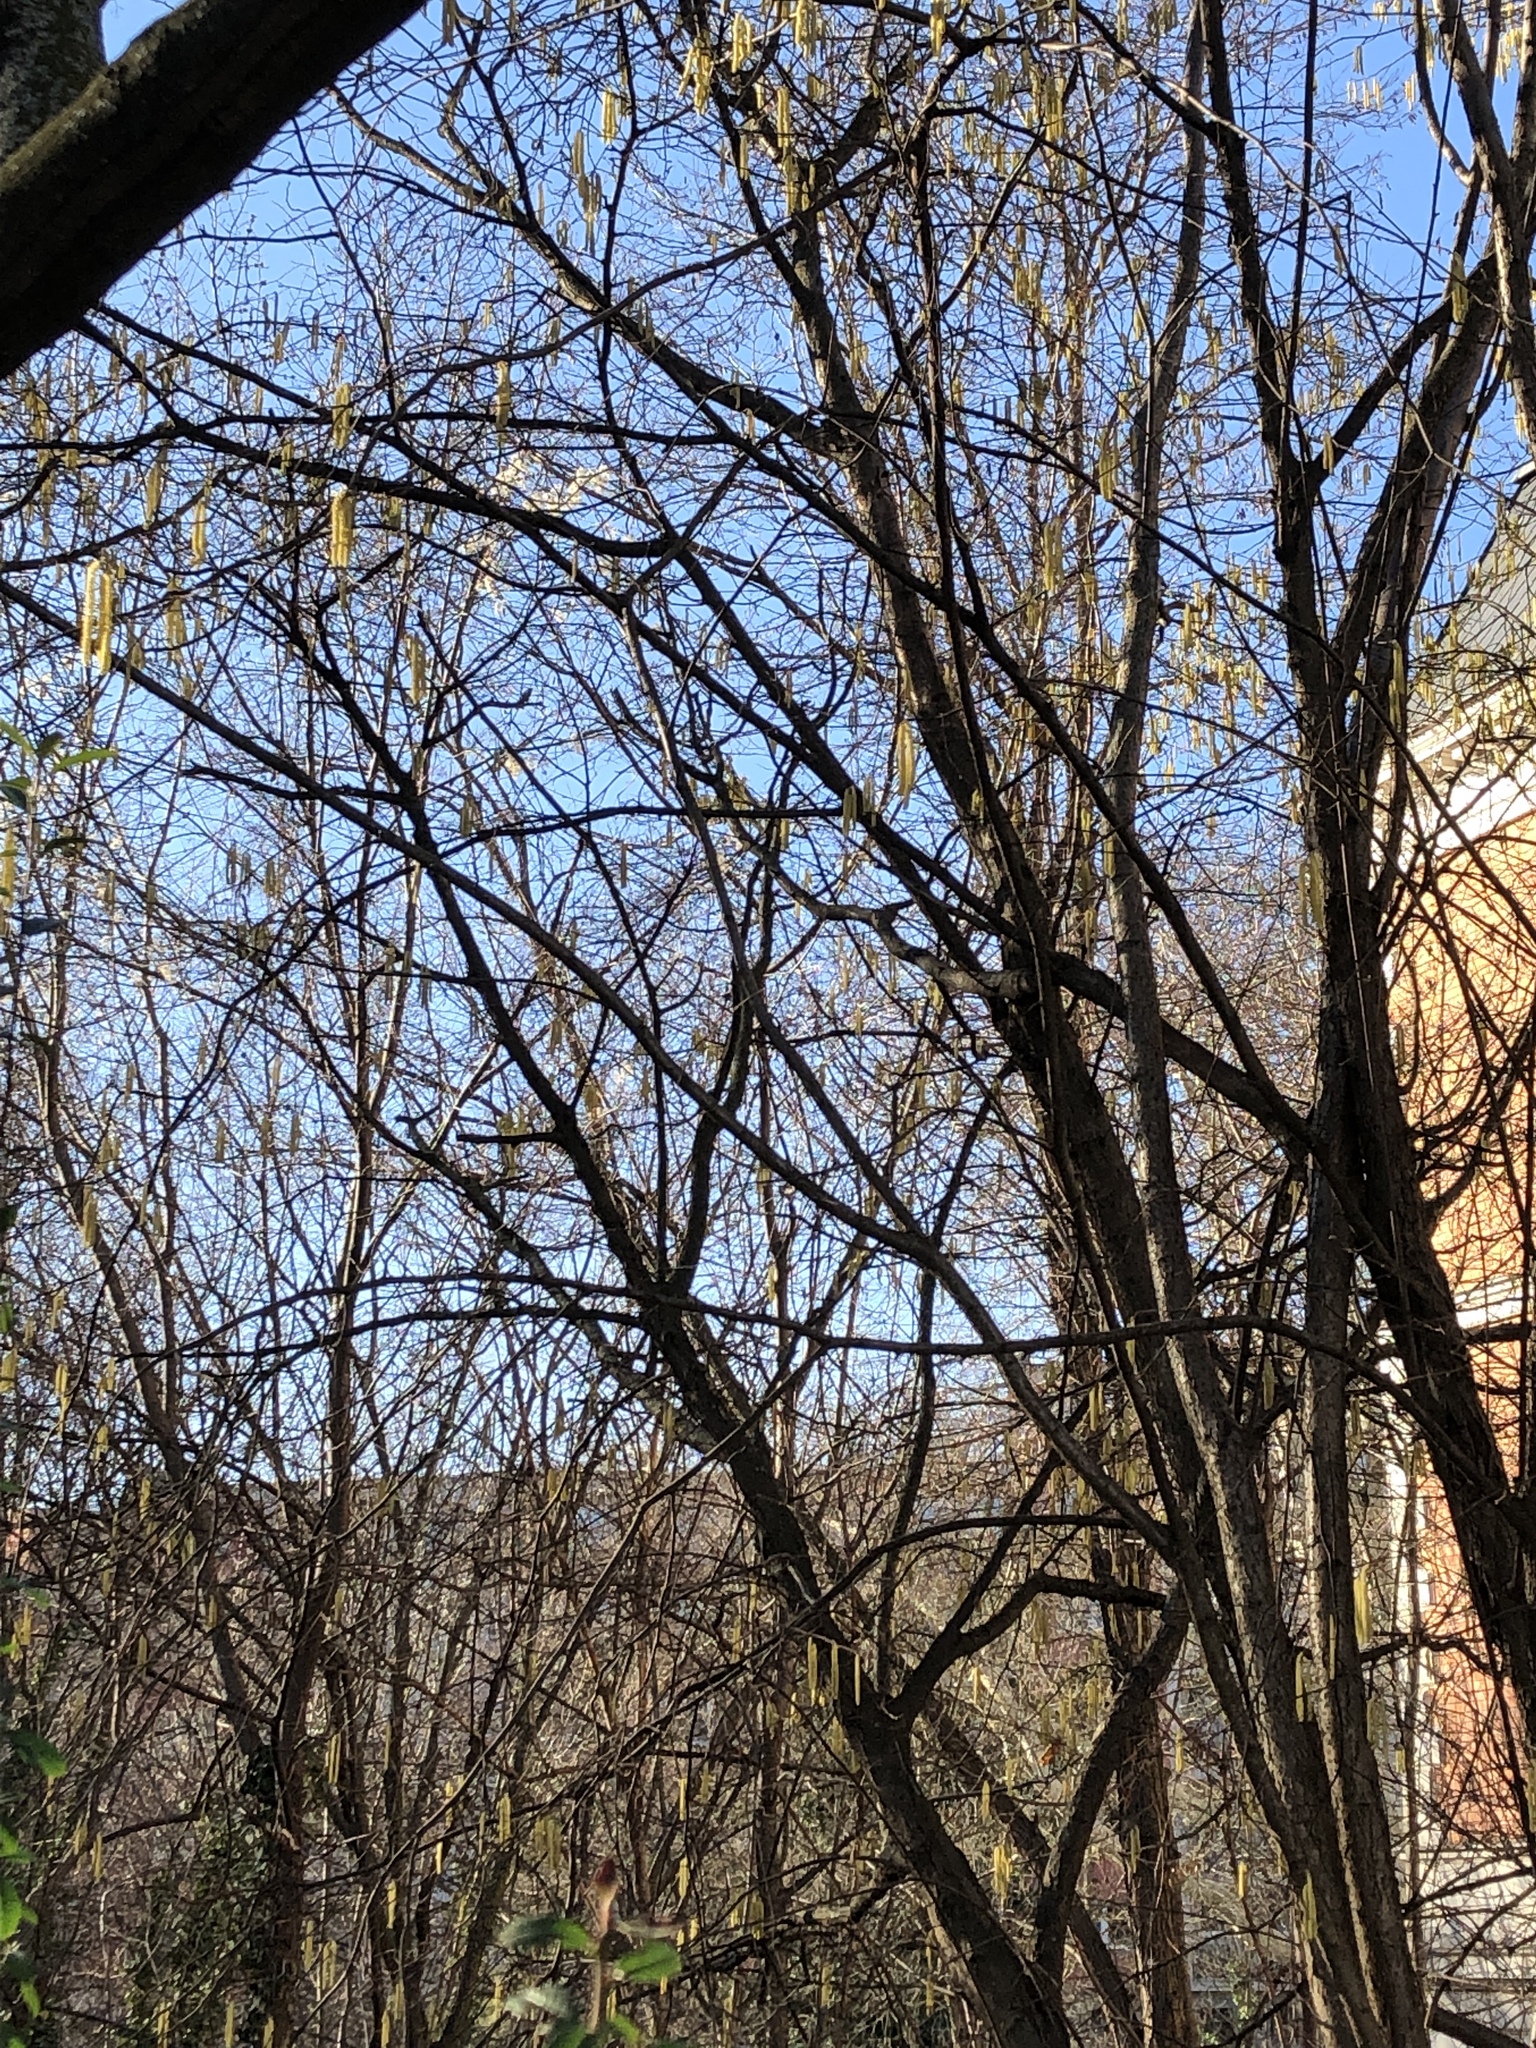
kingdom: Plantae
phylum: Tracheophyta
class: Magnoliopsida
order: Fagales
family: Betulaceae
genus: Corylus
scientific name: Corylus avellana
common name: European hazel
